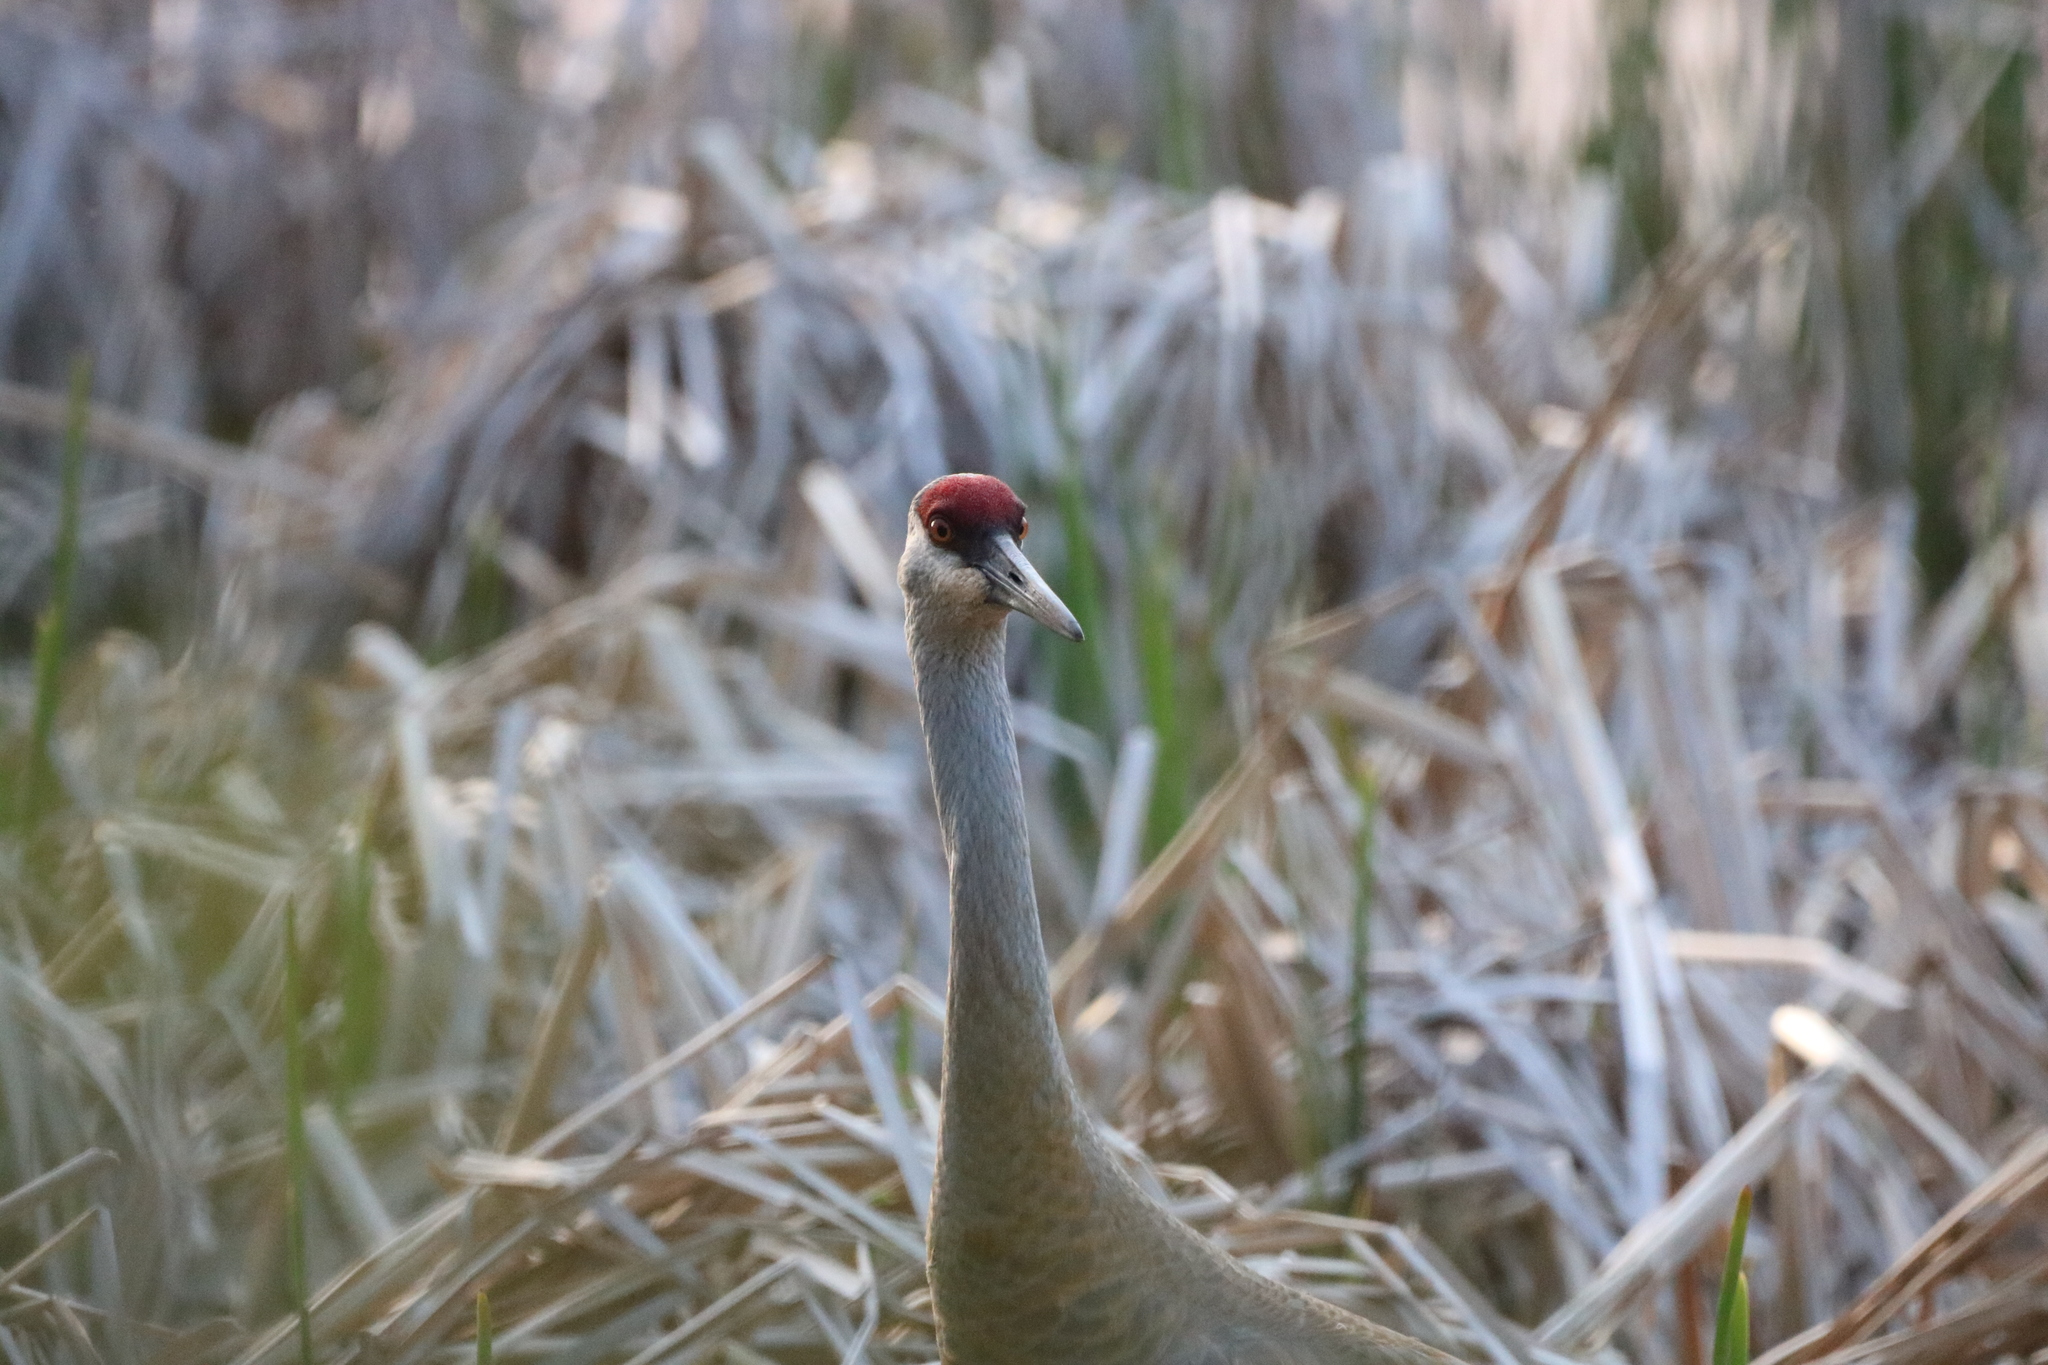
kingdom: Animalia
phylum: Chordata
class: Aves
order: Gruiformes
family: Gruidae
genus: Grus
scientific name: Grus canadensis
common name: Sandhill crane
